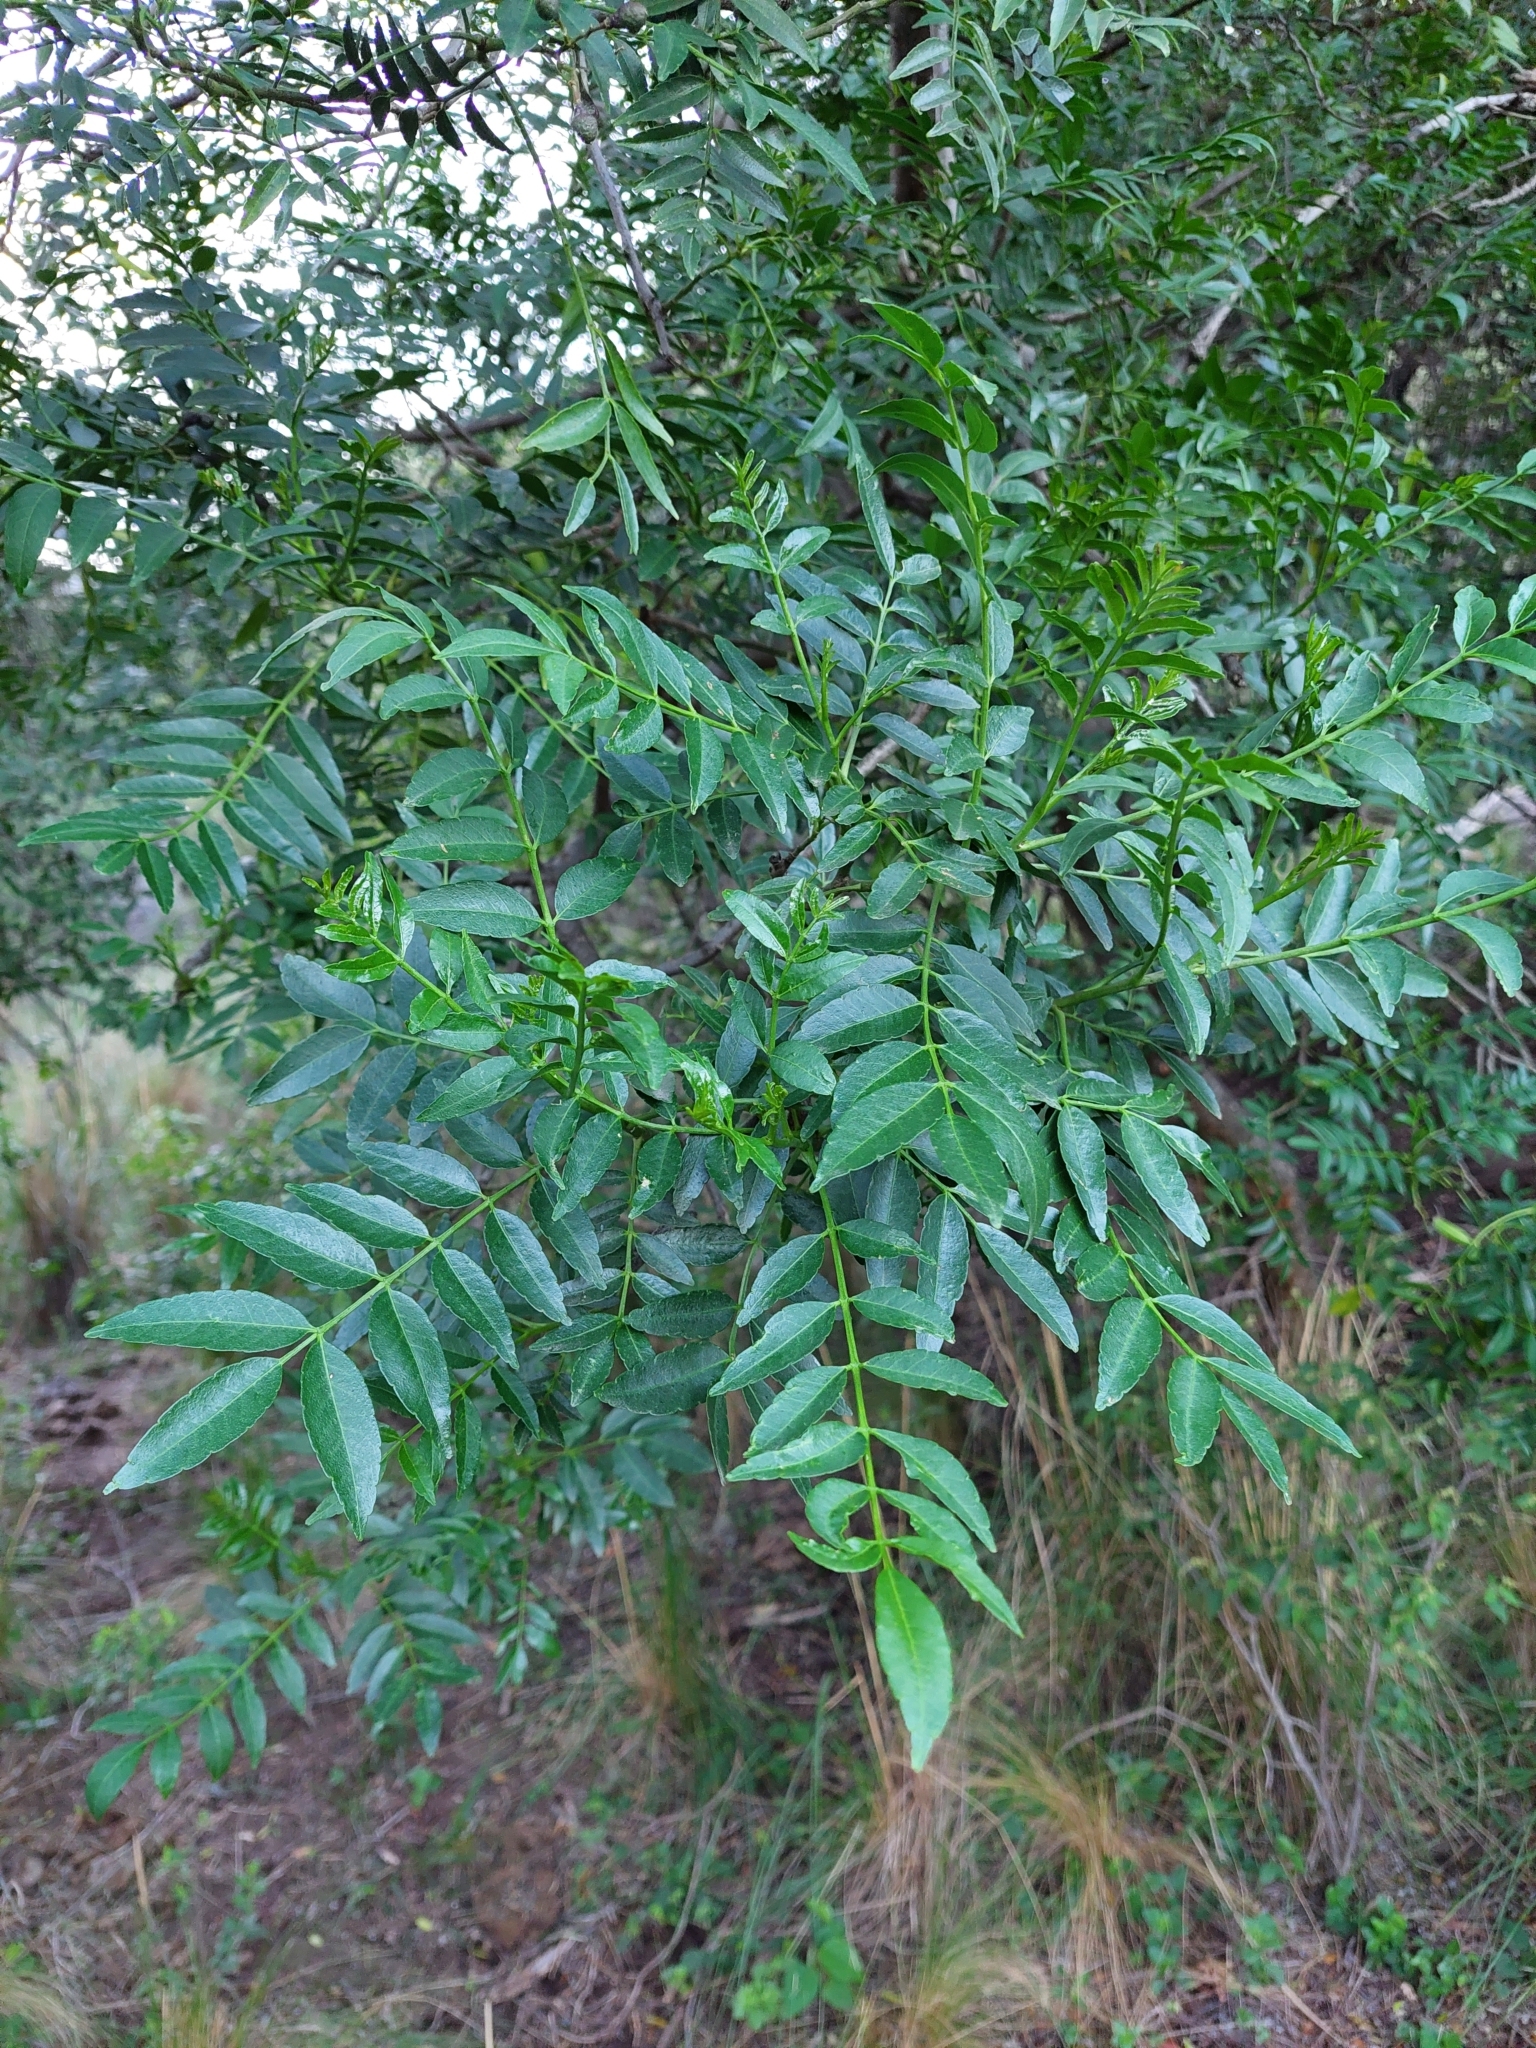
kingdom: Plantae
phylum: Tracheophyta
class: Magnoliopsida
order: Sapindales
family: Rutaceae
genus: Zanthoxylum
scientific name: Zanthoxylum coco
